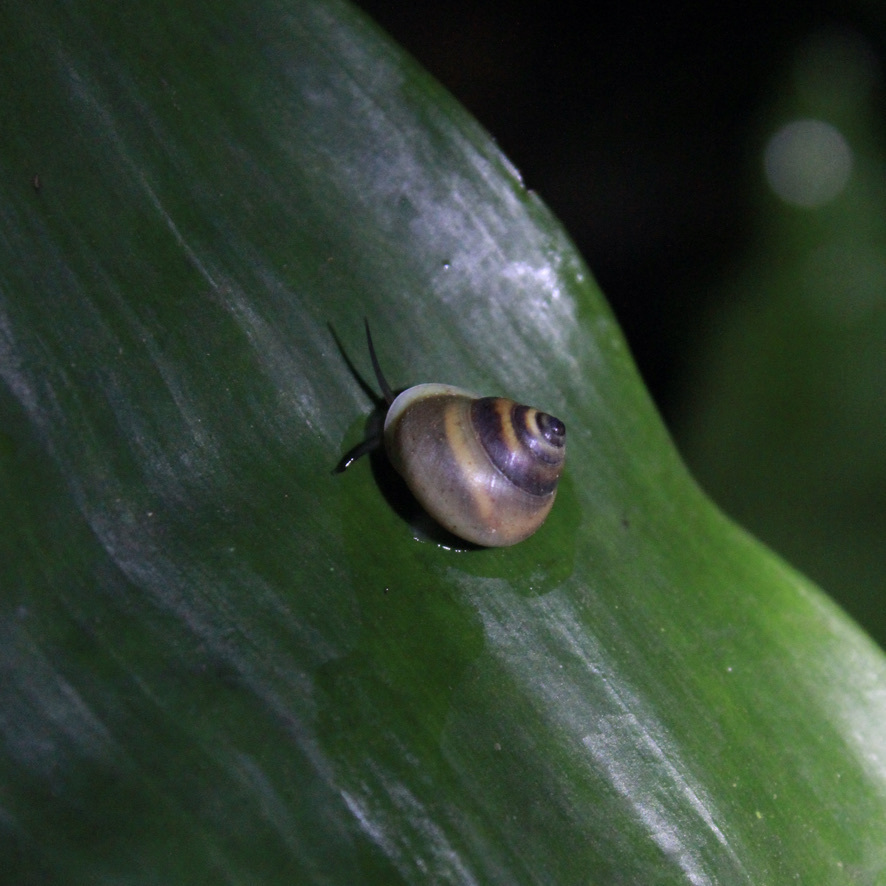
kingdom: Animalia
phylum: Mollusca
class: Gastropoda
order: Cycloneritida
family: Helicinidae
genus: Helicina
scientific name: Helicina nemoralis
